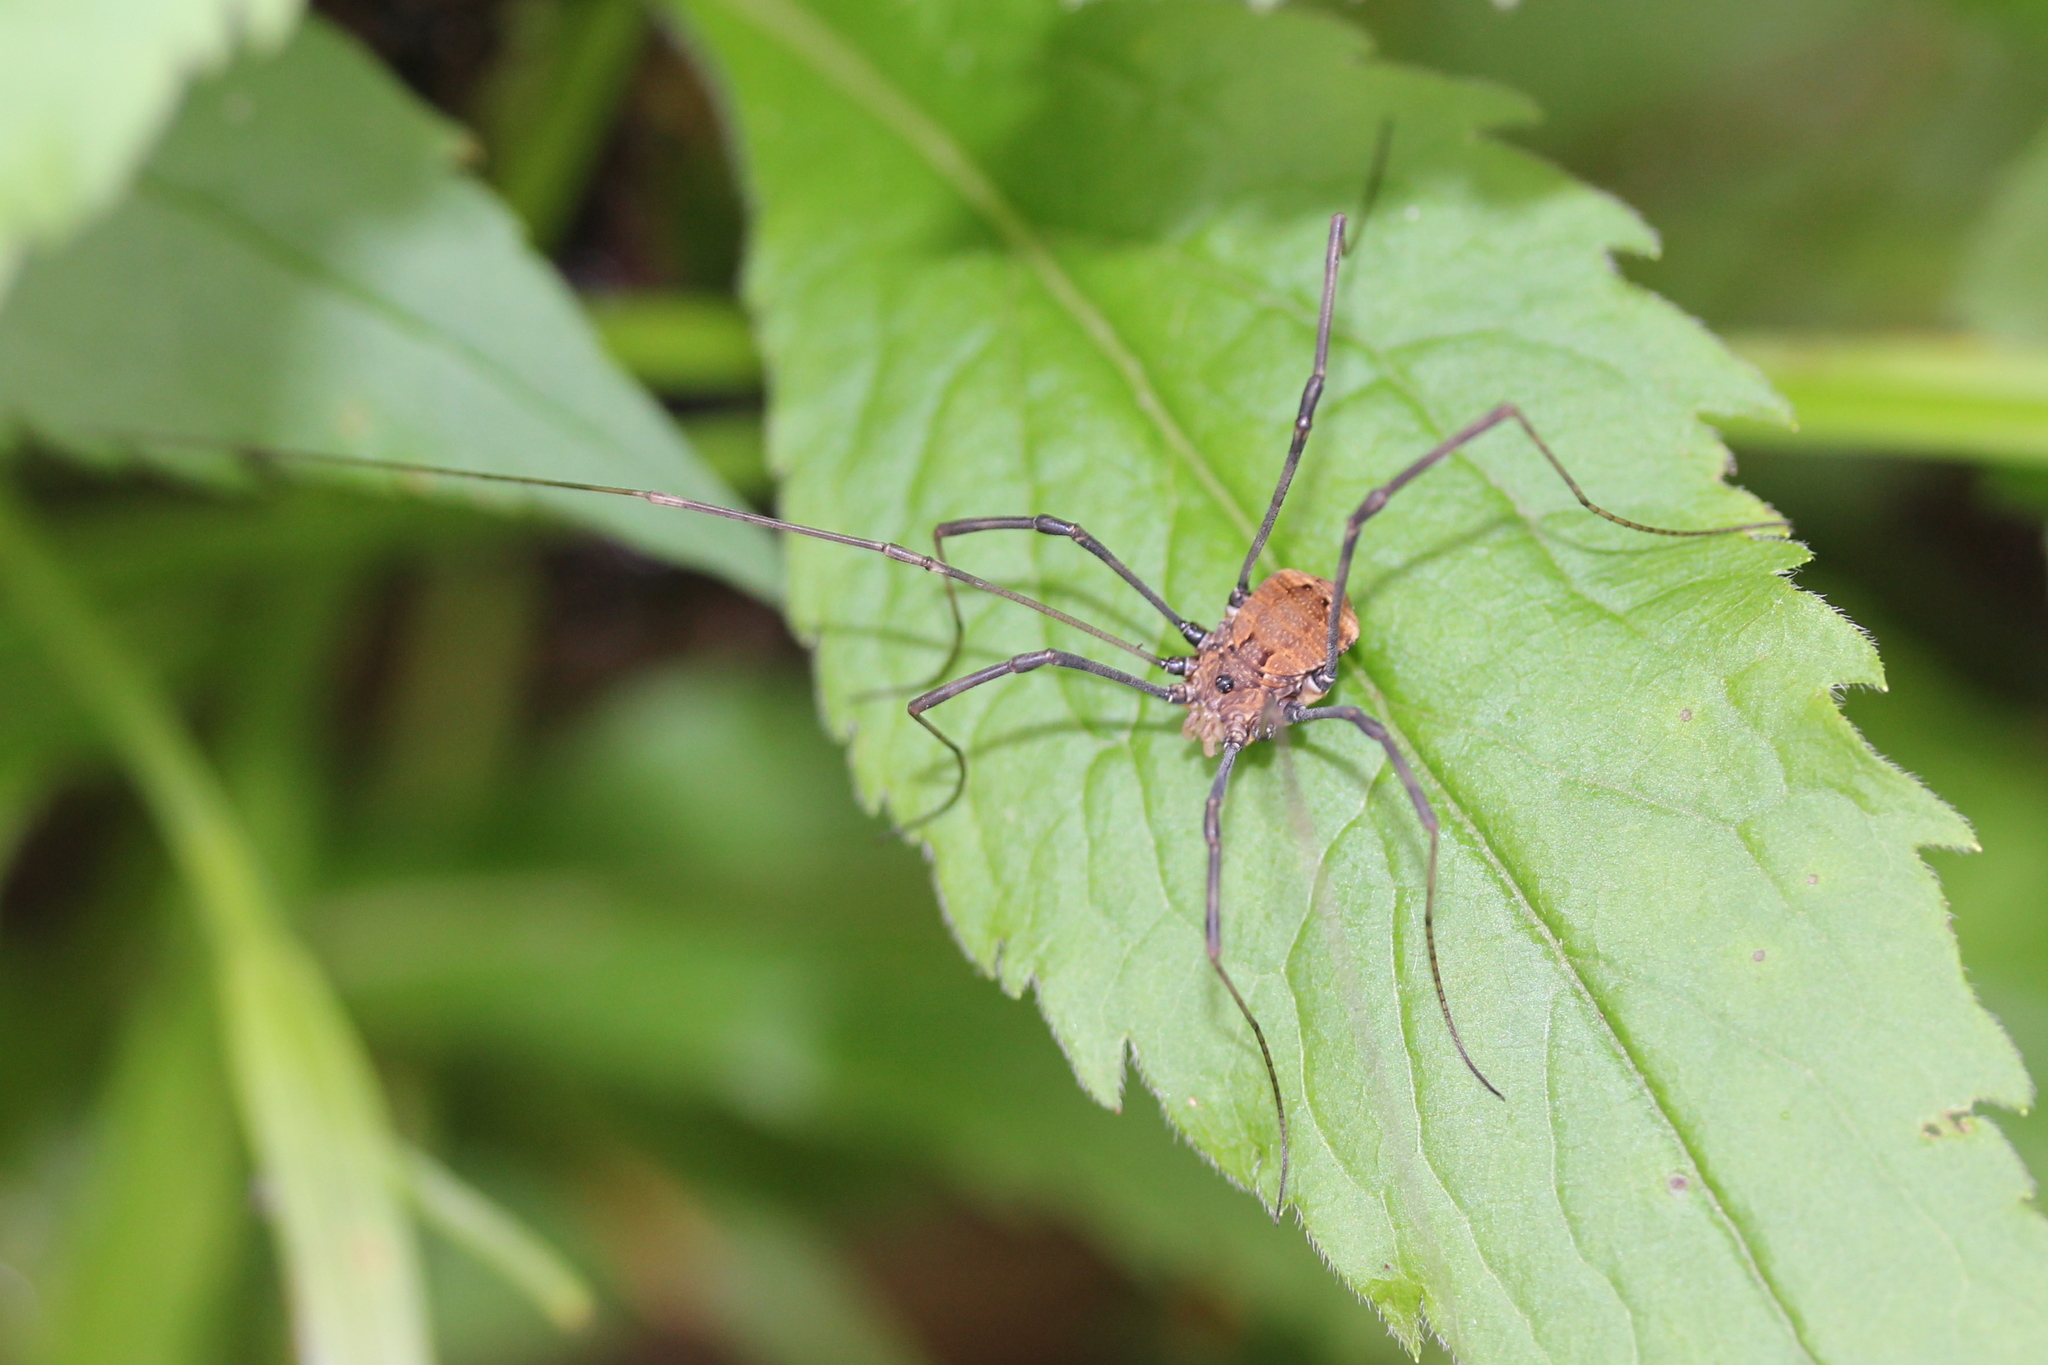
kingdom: Animalia
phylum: Arthropoda
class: Arachnida
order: Opiliones
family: Sclerosomatidae
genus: Leiobunum
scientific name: Leiobunum verrucosum
